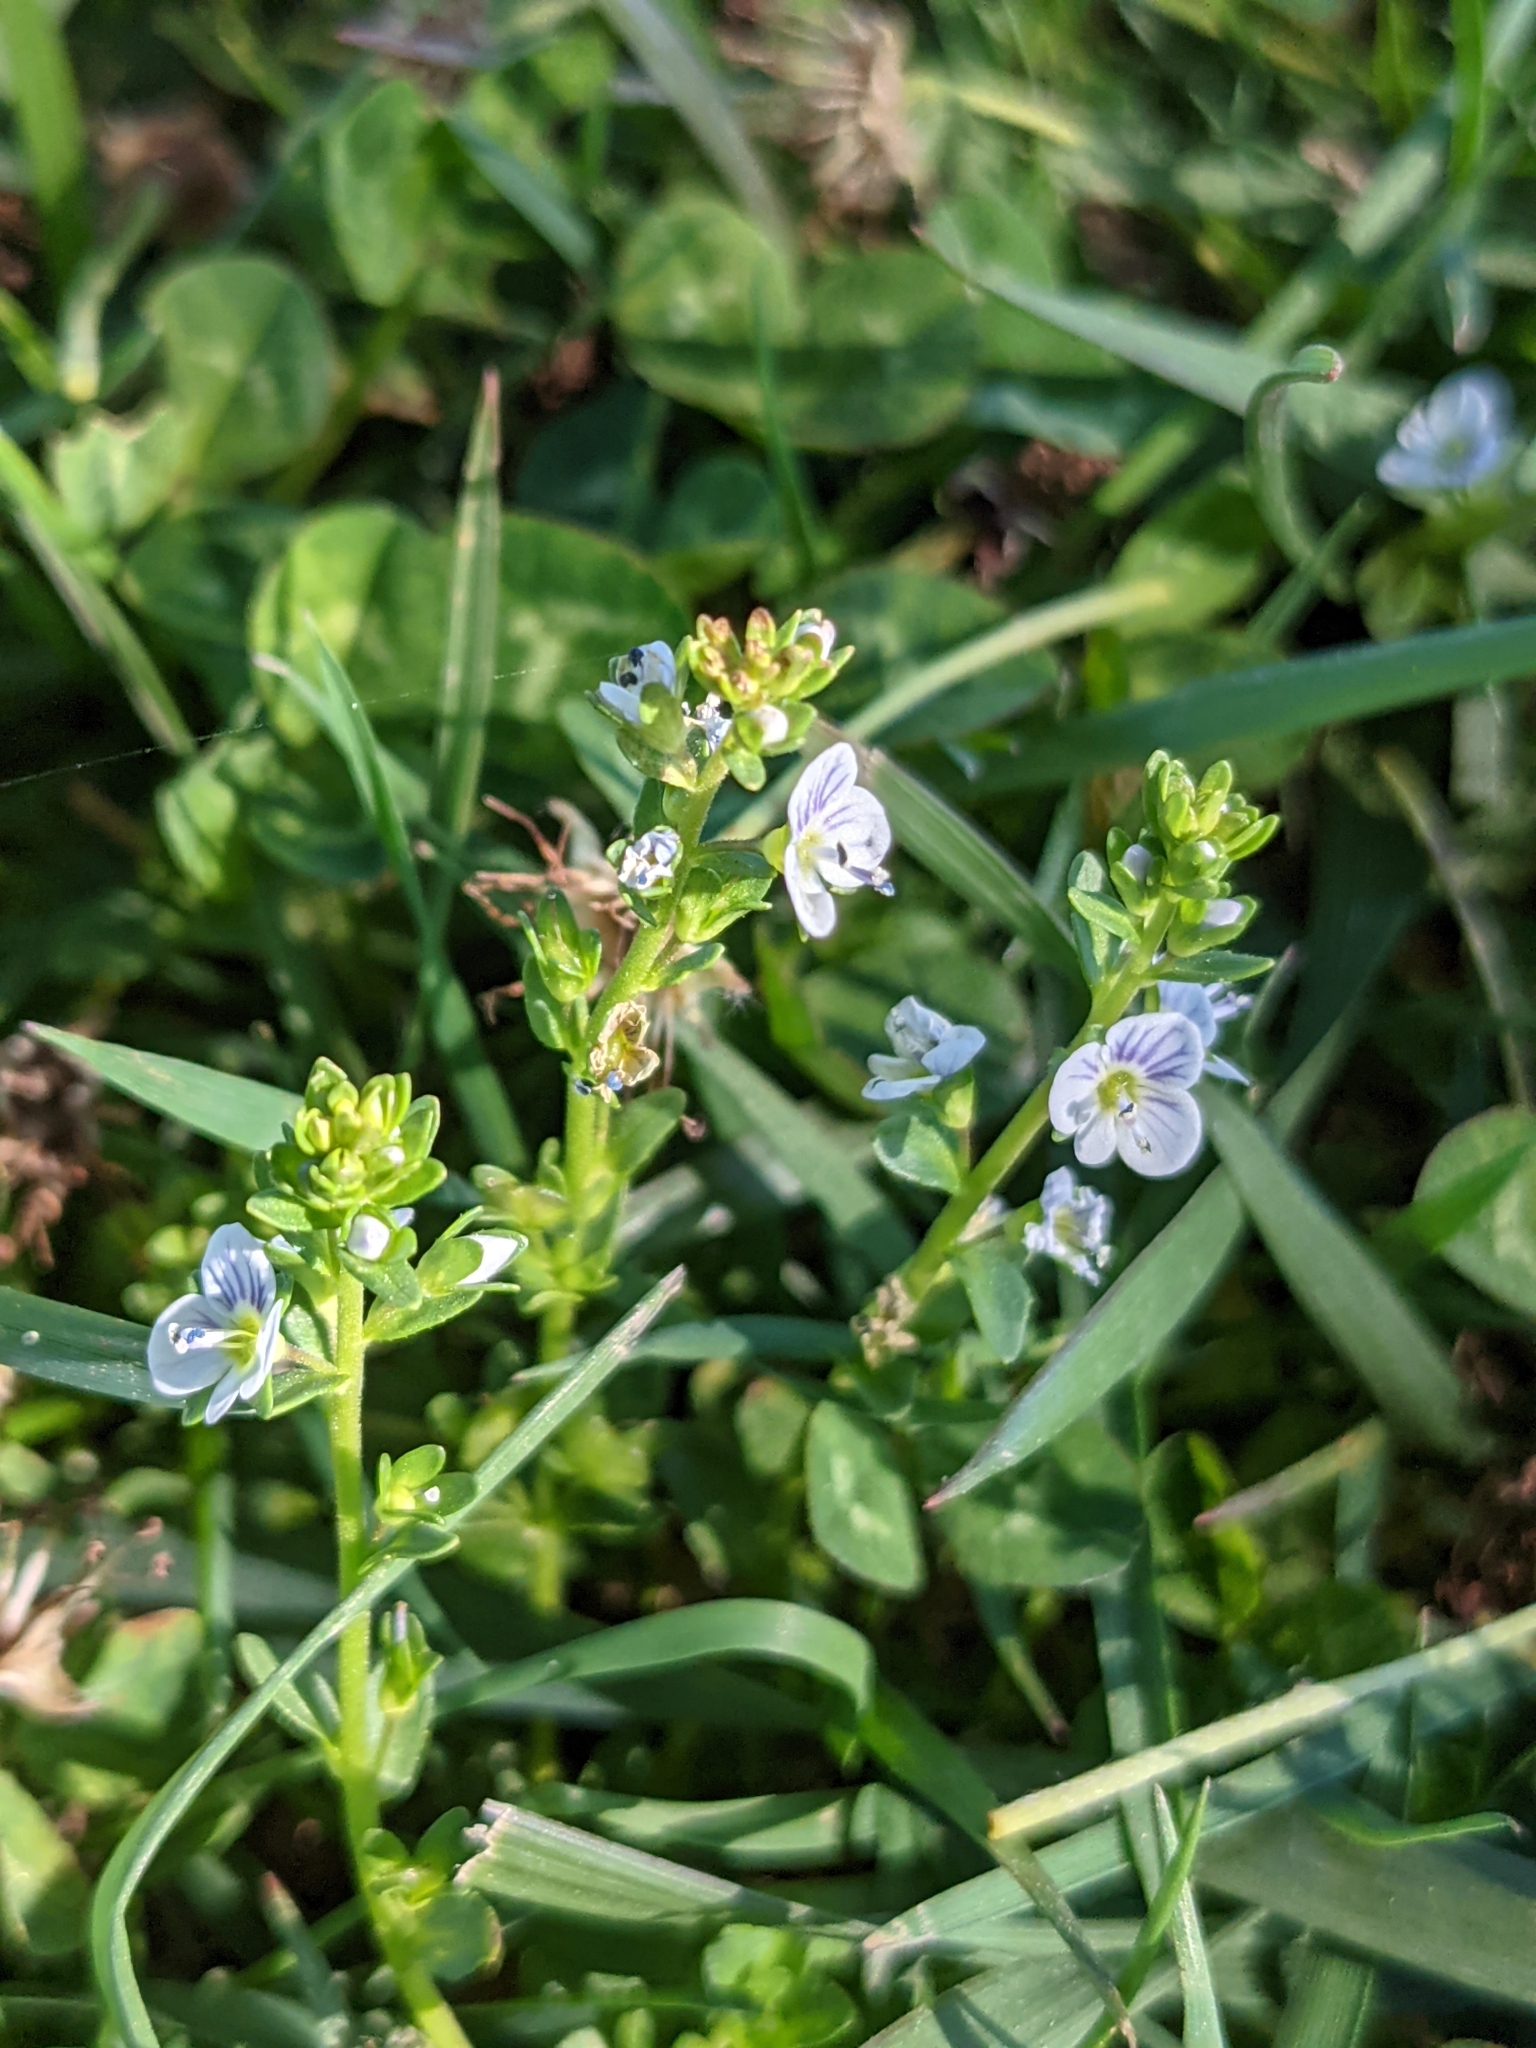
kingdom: Plantae
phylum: Tracheophyta
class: Magnoliopsida
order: Lamiales
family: Plantaginaceae
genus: Veronica
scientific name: Veronica serpyllifolia
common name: Thyme-leaved speedwell
